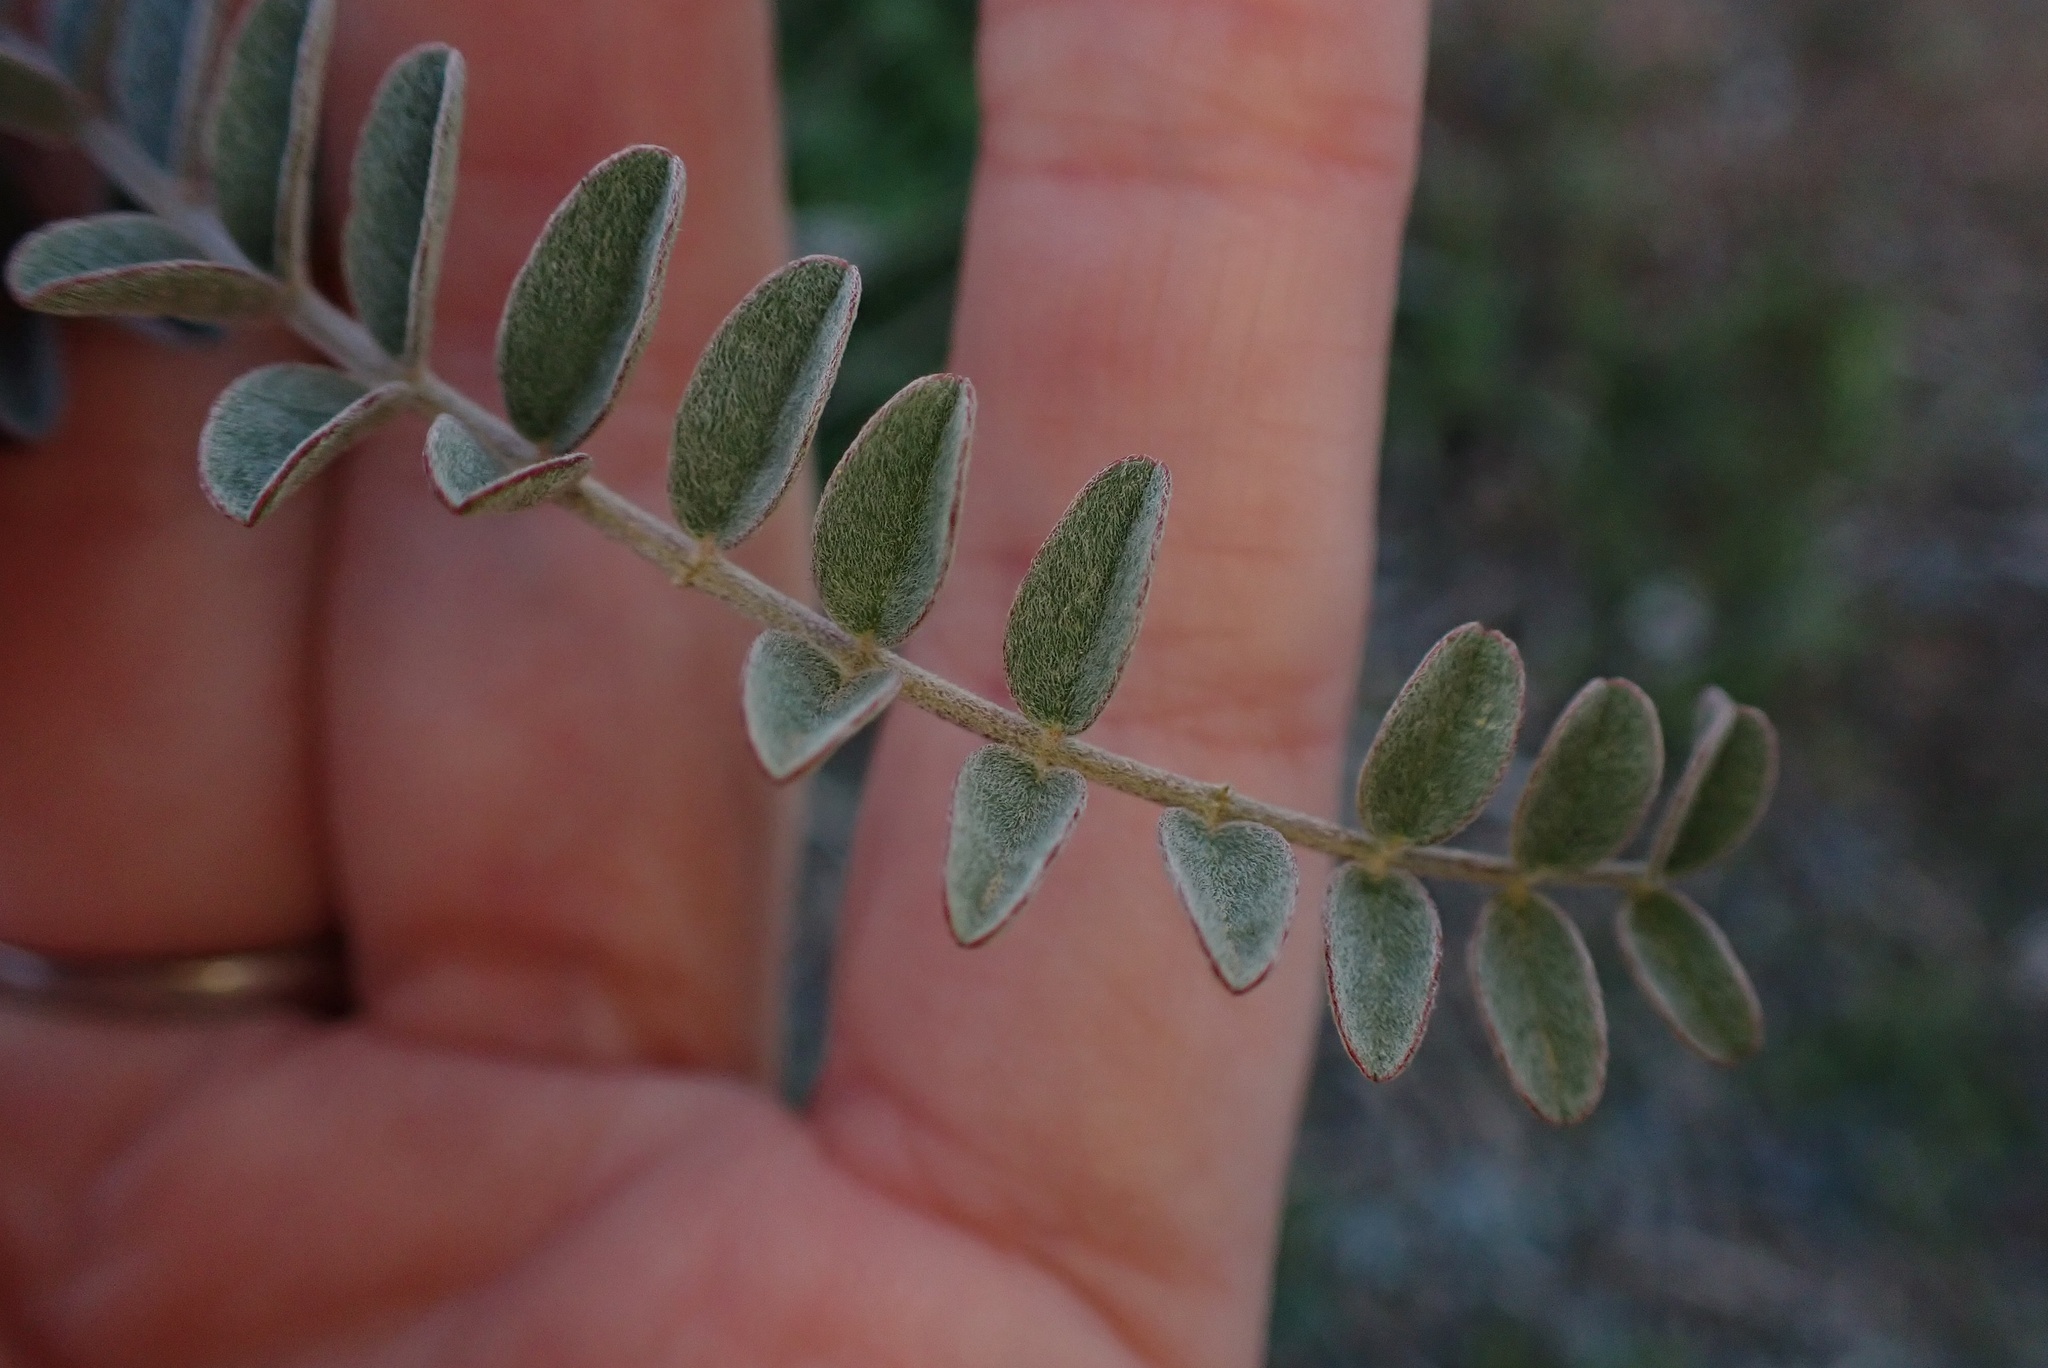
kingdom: Plantae
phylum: Tracheophyta
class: Magnoliopsida
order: Fabales
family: Fabaceae
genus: Astragalus
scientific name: Astragalus trichopodus
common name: Santa barbara milk-vetch
